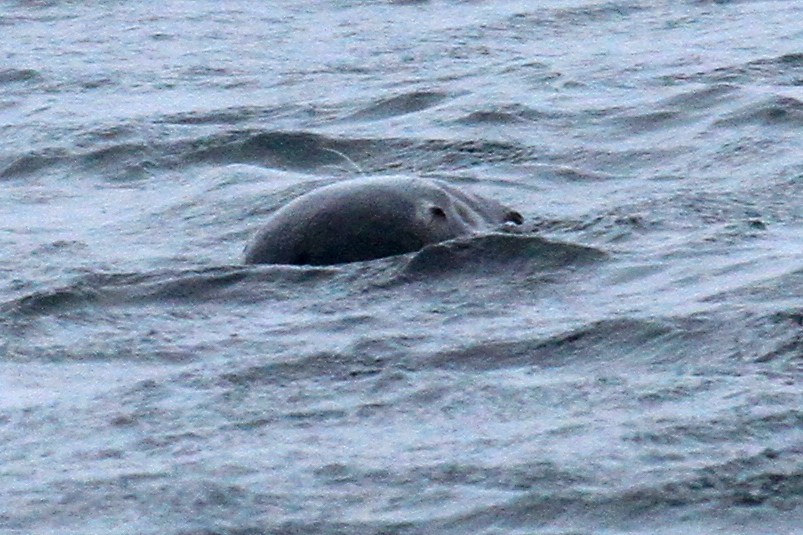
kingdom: Animalia
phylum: Chordata
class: Mammalia
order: Carnivora
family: Phocidae
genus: Halichoerus
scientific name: Halichoerus grypus
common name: Grey seal
